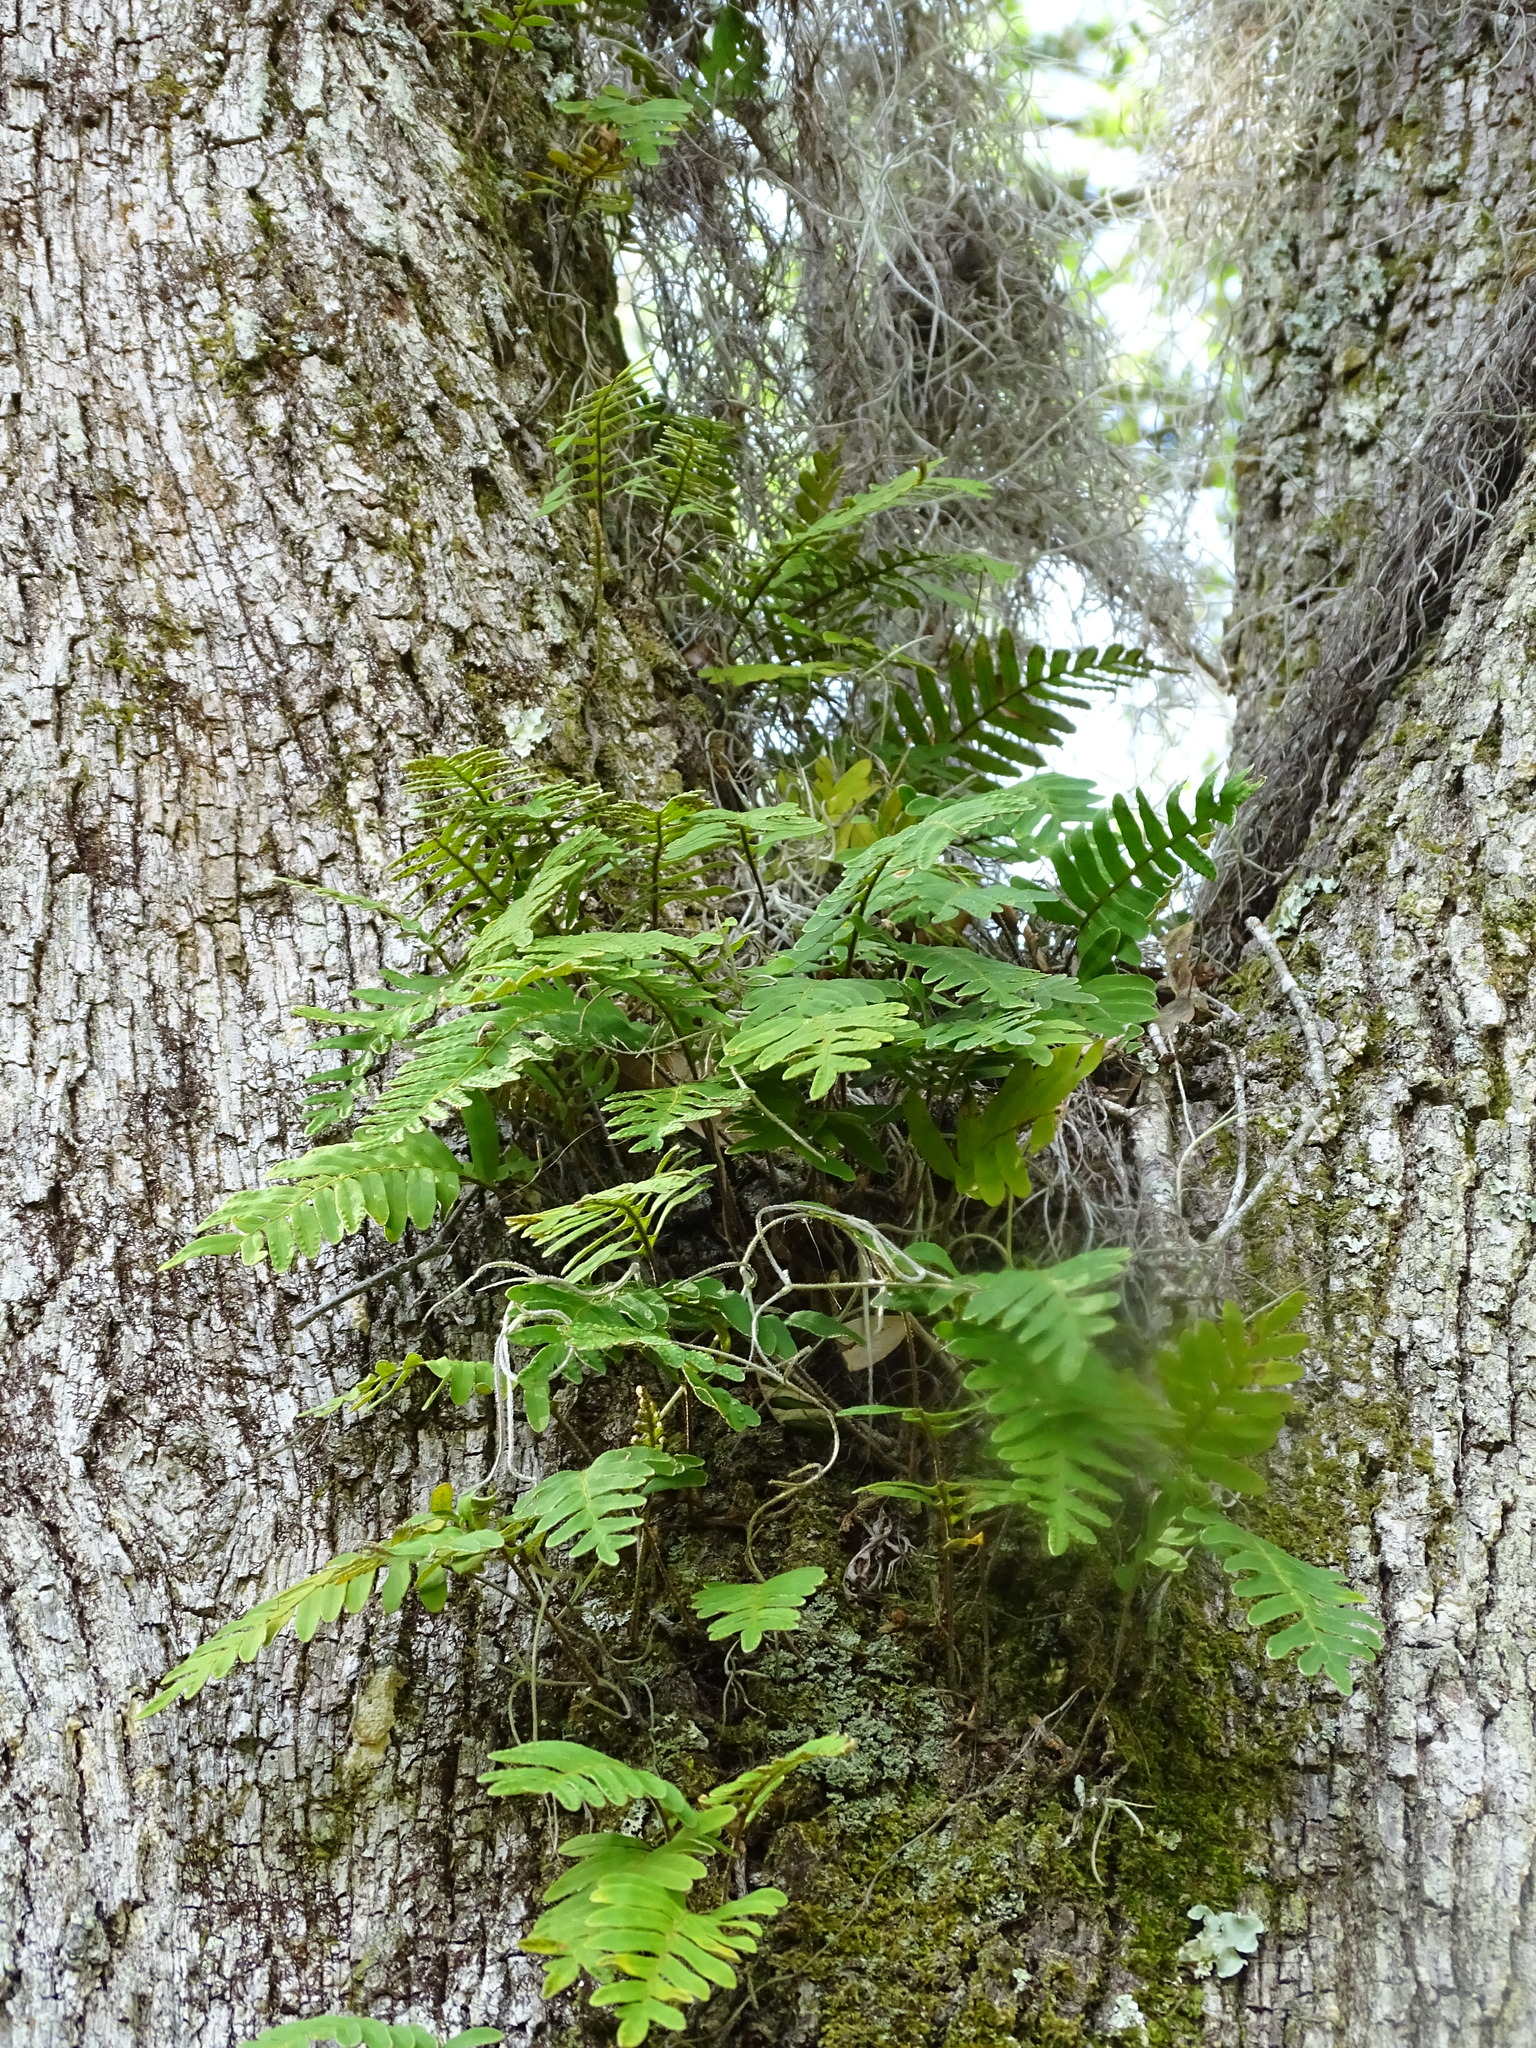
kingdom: Plantae
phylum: Tracheophyta
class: Polypodiopsida
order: Polypodiales
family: Polypodiaceae
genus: Pleopeltis
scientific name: Pleopeltis michauxiana
